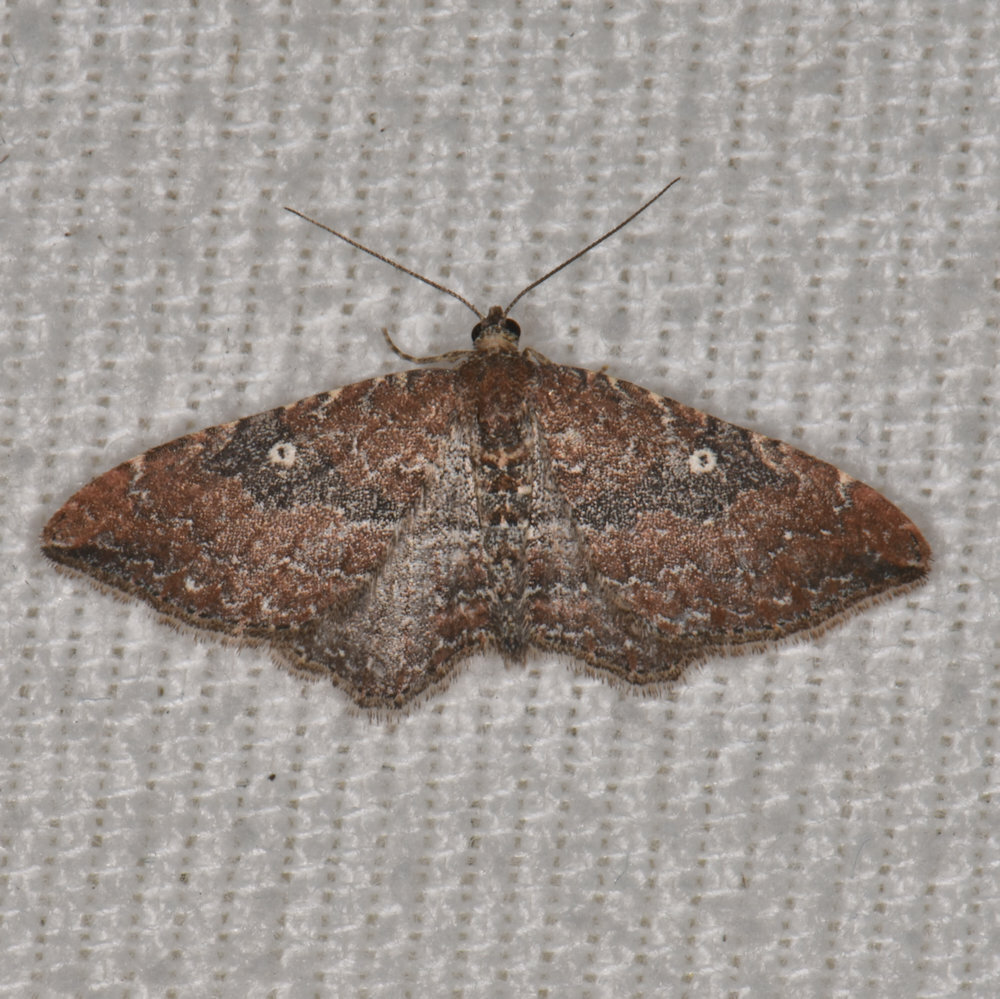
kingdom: Animalia
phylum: Arthropoda
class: Insecta
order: Lepidoptera
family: Geometridae
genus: Orthonama
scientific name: Orthonama obstipata
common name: The gem
